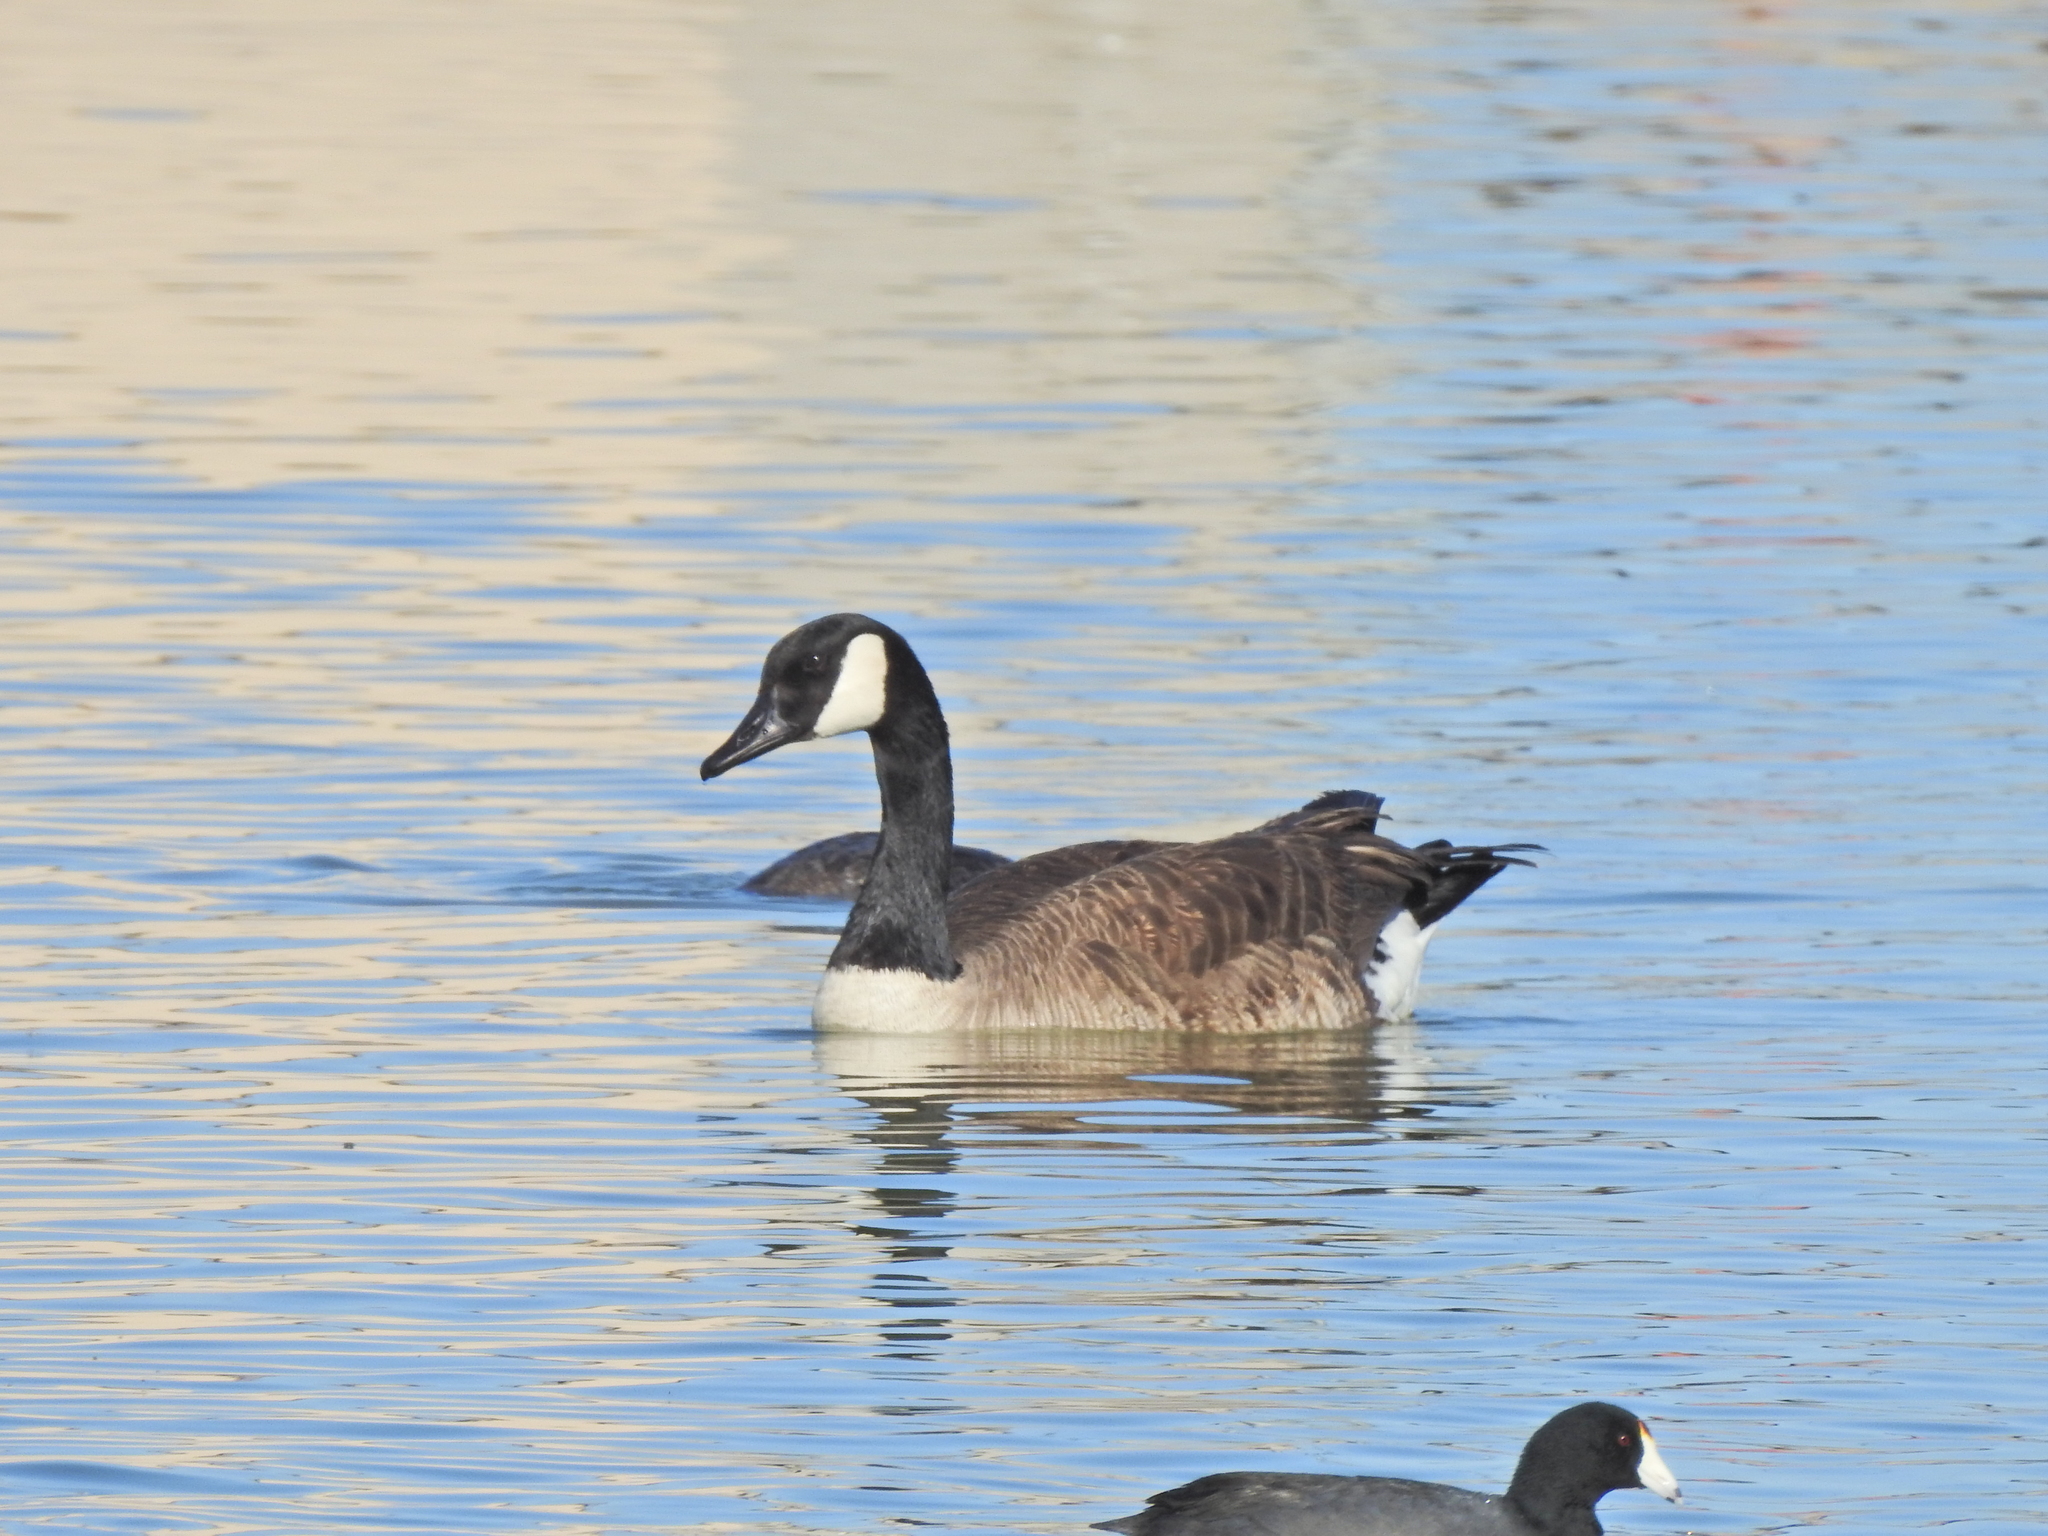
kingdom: Animalia
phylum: Chordata
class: Aves
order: Anseriformes
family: Anatidae
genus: Branta
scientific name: Branta canadensis
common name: Canada goose
